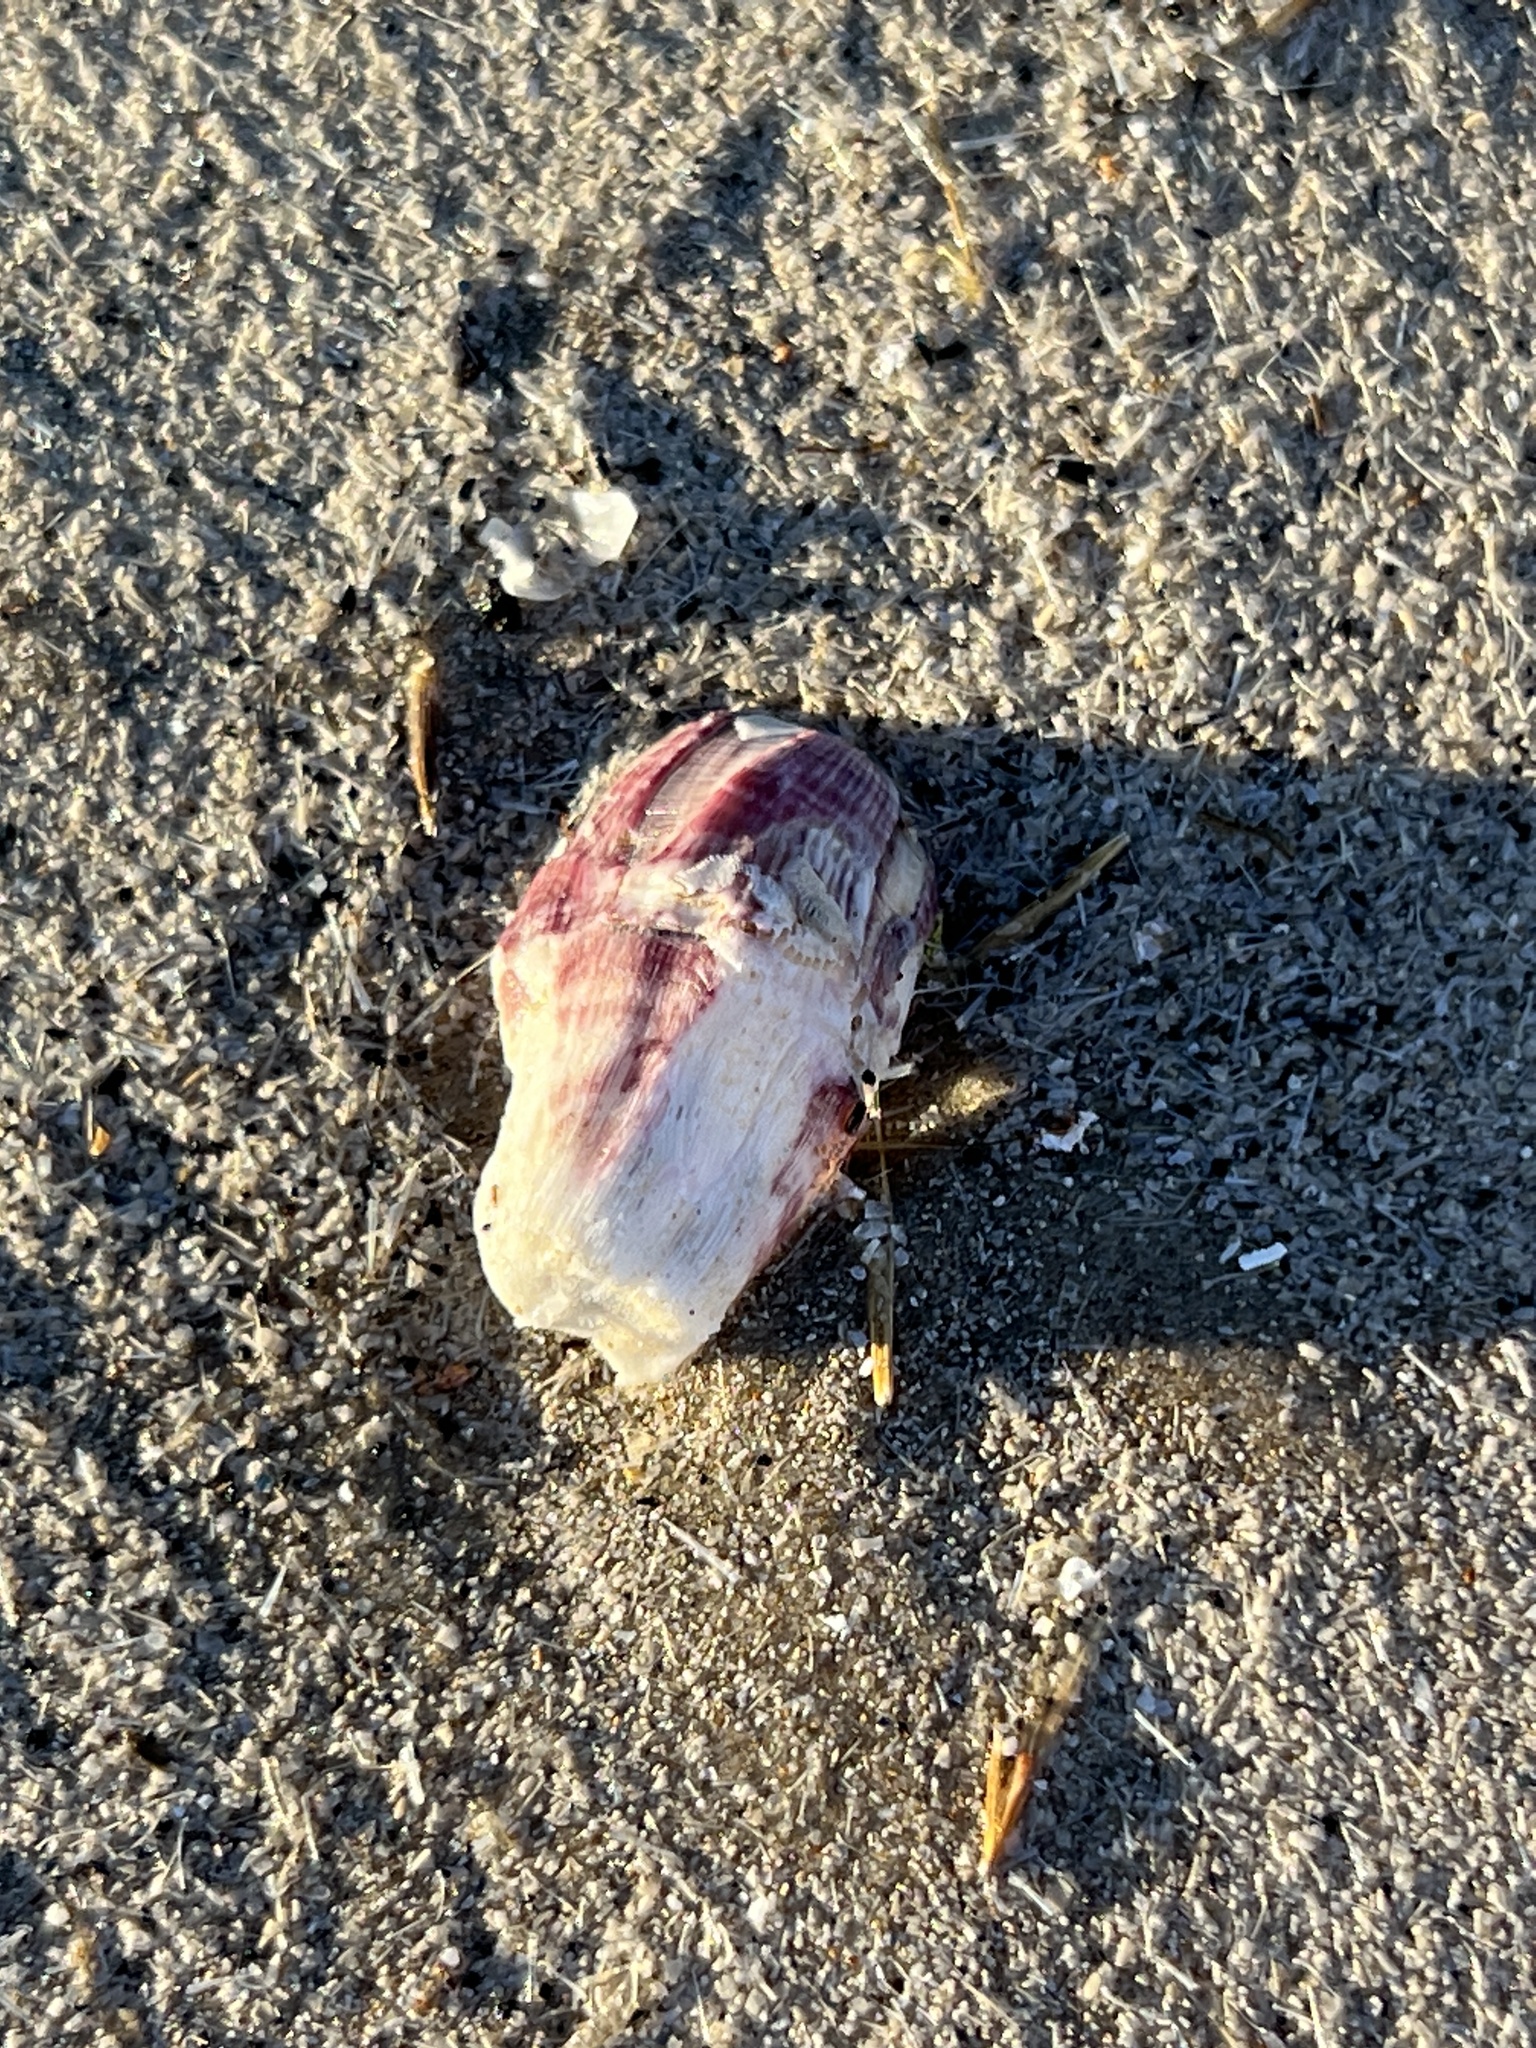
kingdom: Animalia
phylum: Arthropoda
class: Maxillopoda
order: Sessilia
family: Balanidae
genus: Megabalanus
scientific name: Megabalanus tintinnabulum
